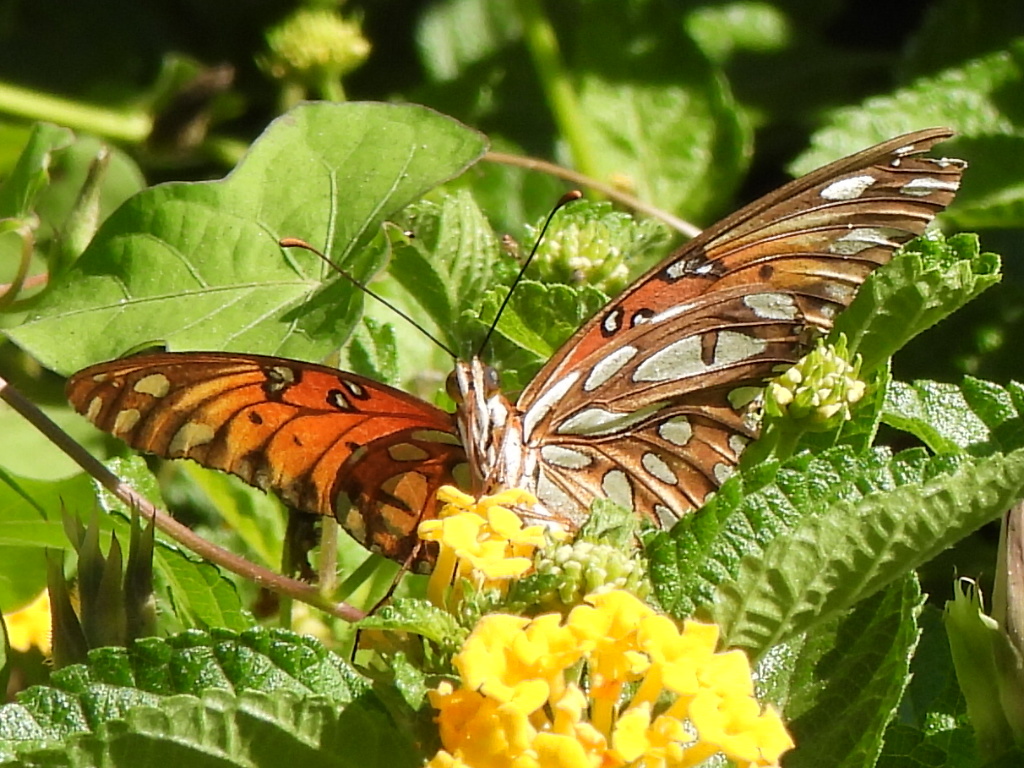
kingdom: Animalia
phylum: Arthropoda
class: Insecta
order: Lepidoptera
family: Nymphalidae
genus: Dione
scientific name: Dione vanillae
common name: Gulf fritillary
